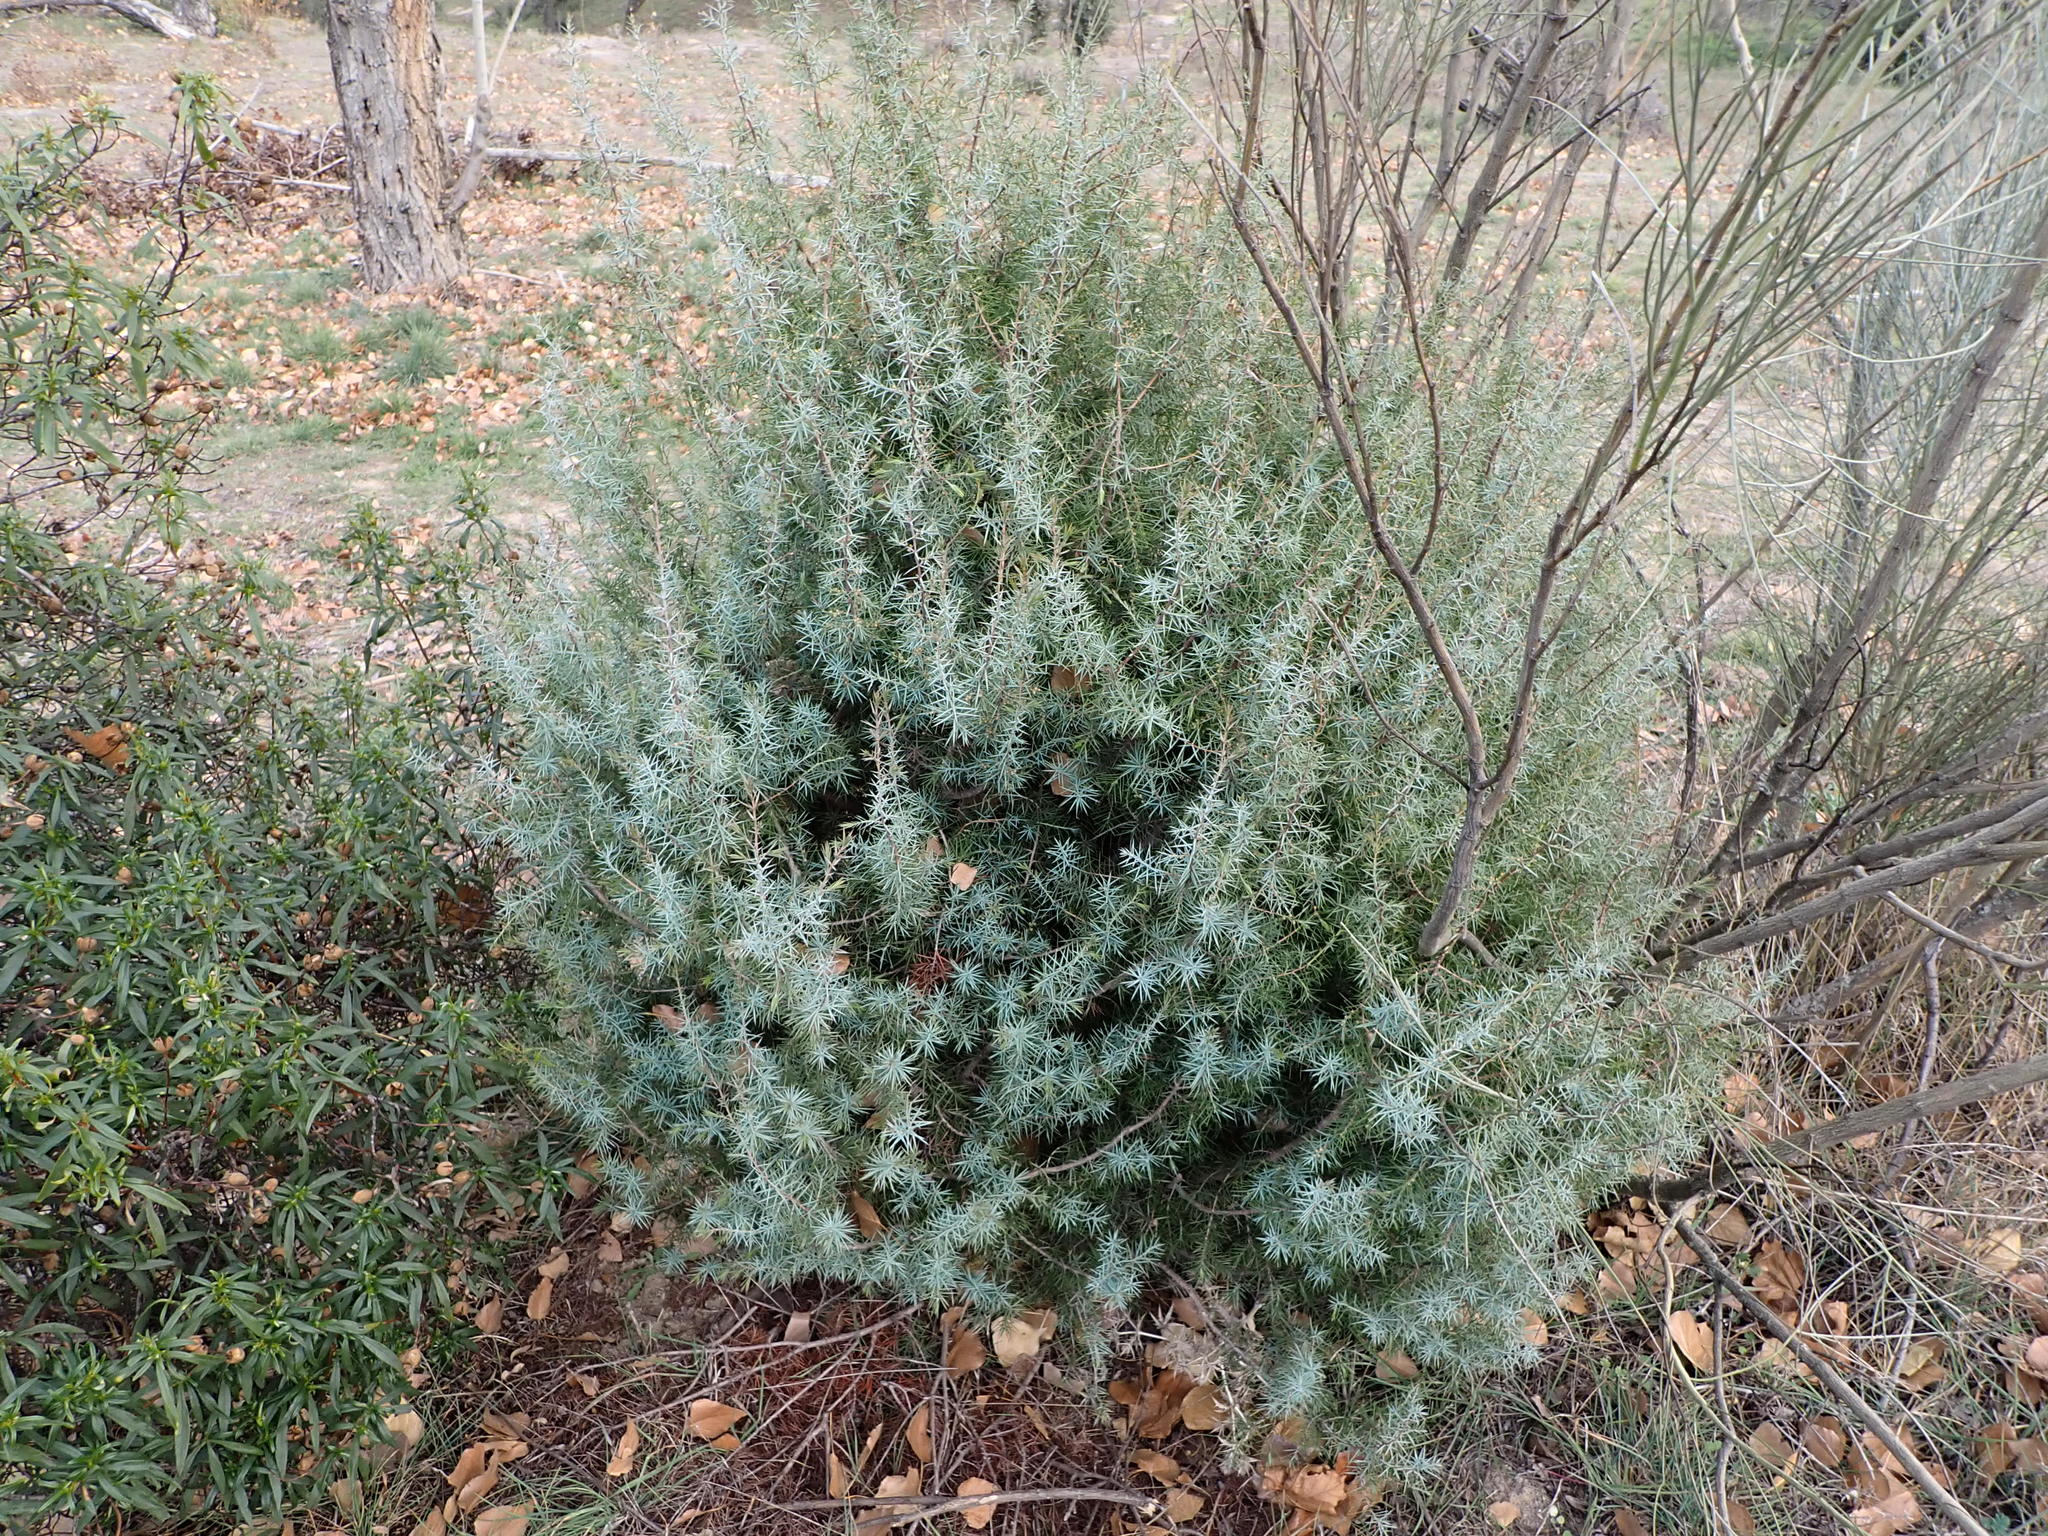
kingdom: Plantae
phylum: Tracheophyta
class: Pinopsida
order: Pinales
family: Cupressaceae
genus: Juniperus
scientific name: Juniperus oxycedrus
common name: Prickly juniper
